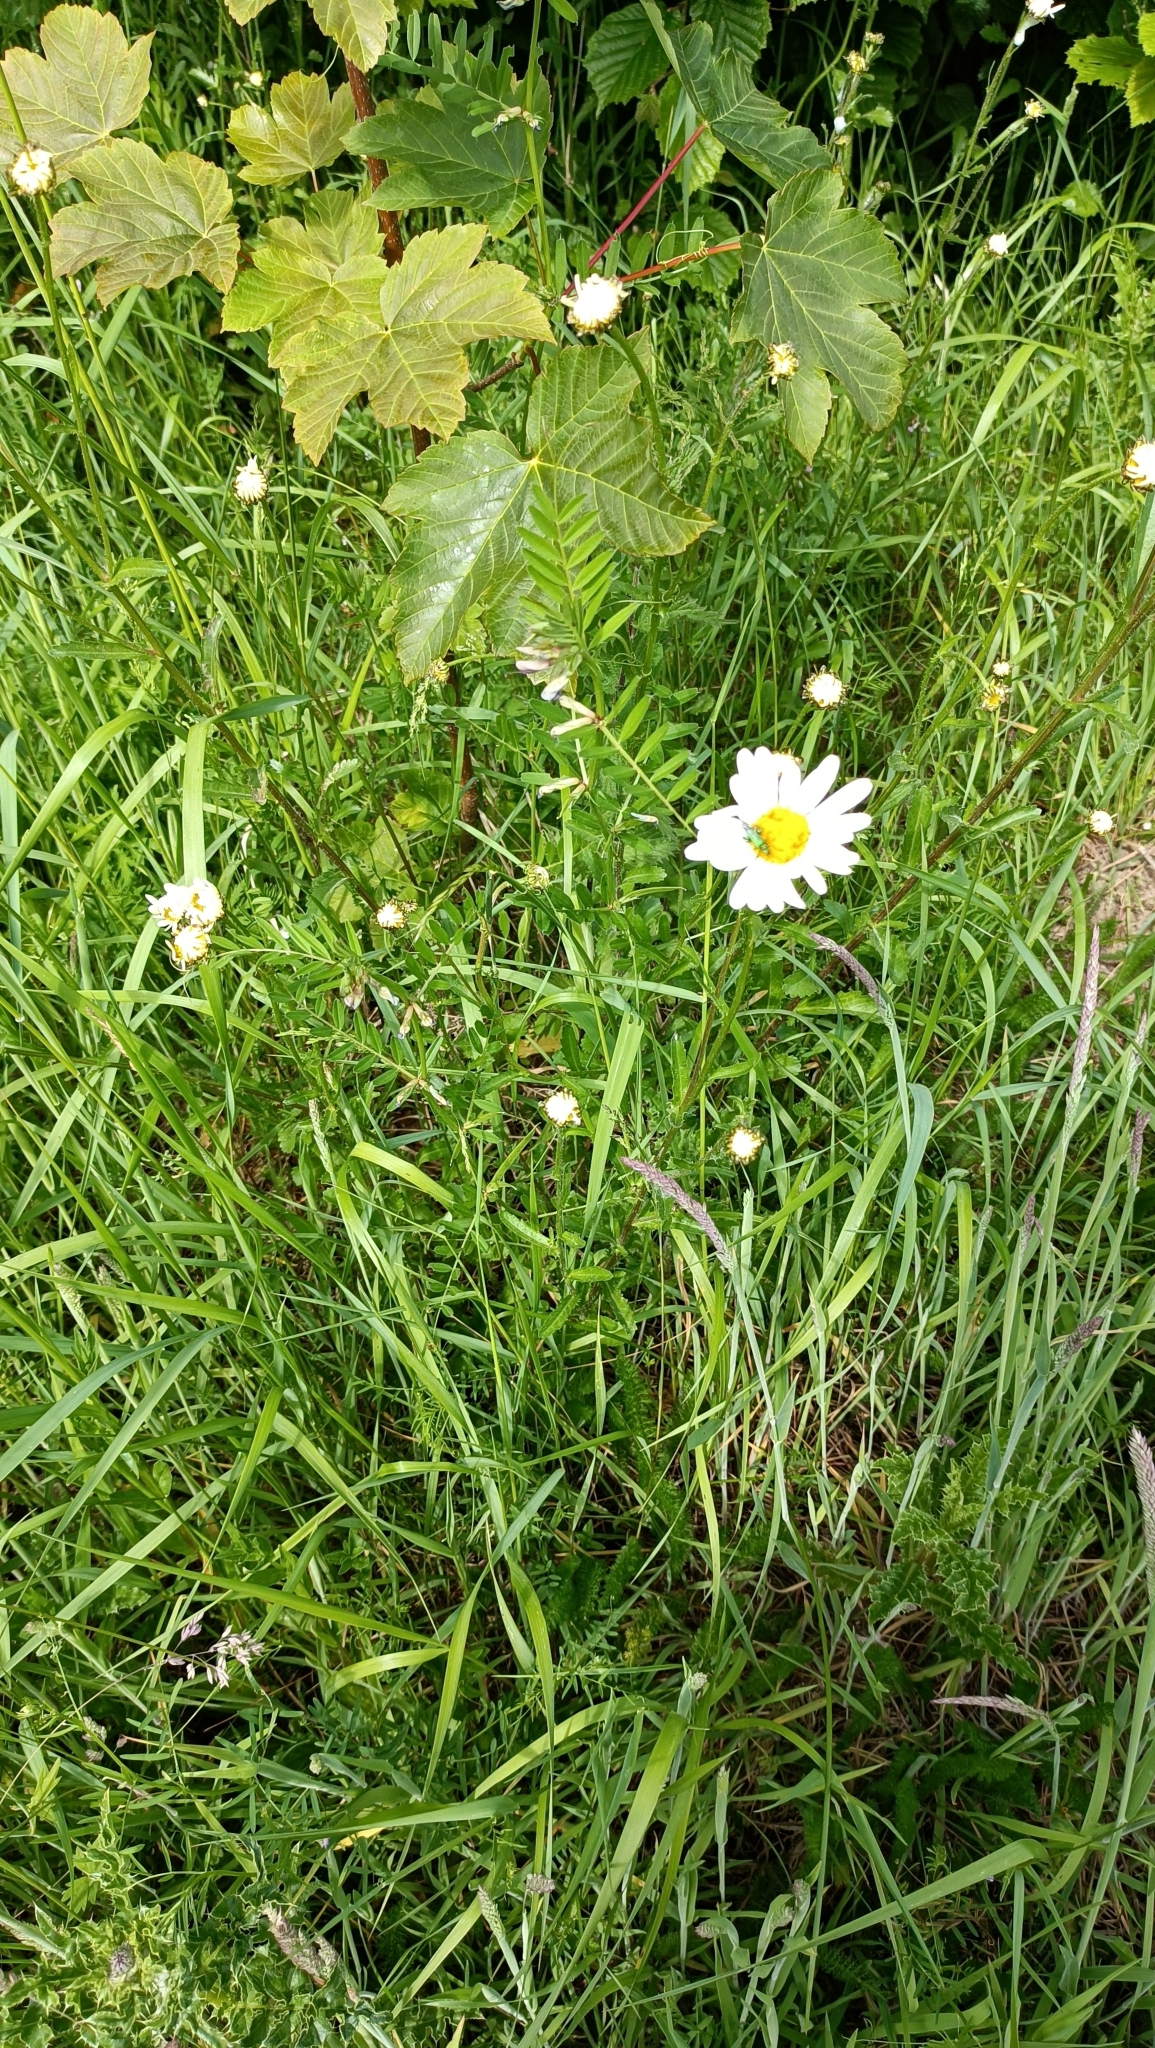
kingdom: Plantae
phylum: Tracheophyta
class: Magnoliopsida
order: Asterales
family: Asteraceae
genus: Leucanthemum
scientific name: Leucanthemum vulgare
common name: Oxeye daisy
